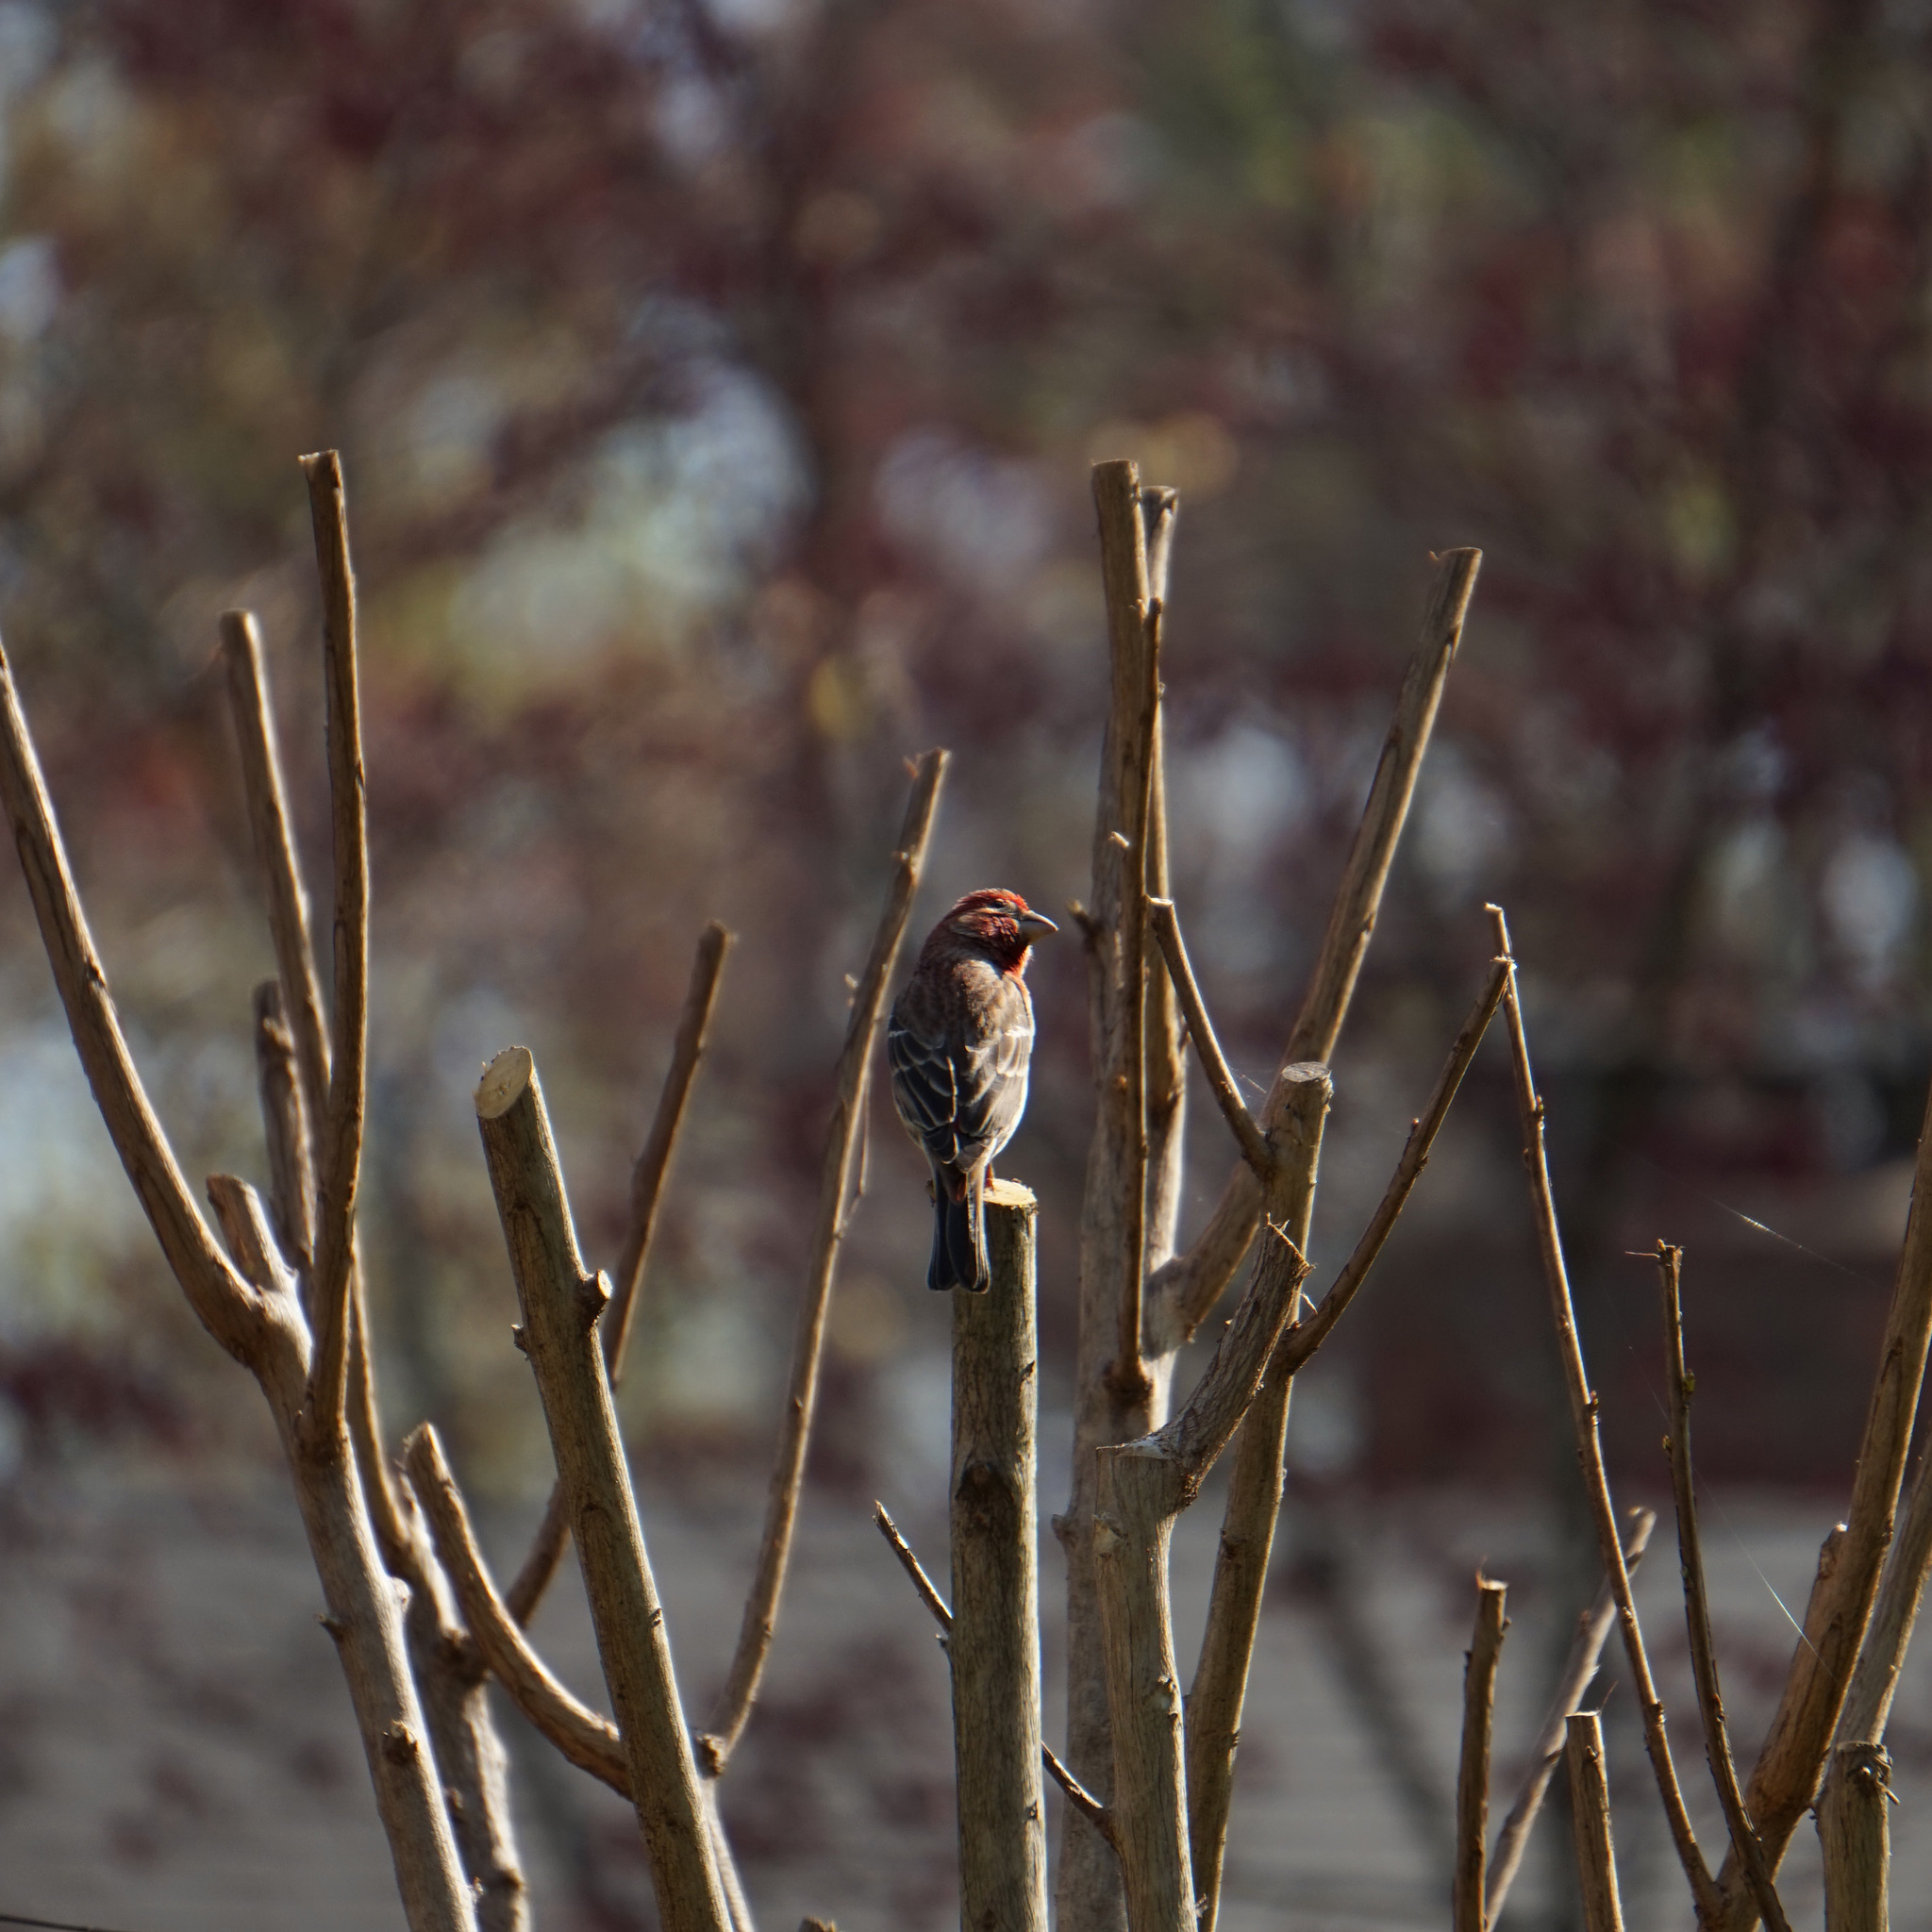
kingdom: Animalia
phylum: Chordata
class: Aves
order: Passeriformes
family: Fringillidae
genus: Haemorhous
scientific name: Haemorhous mexicanus
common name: House finch
